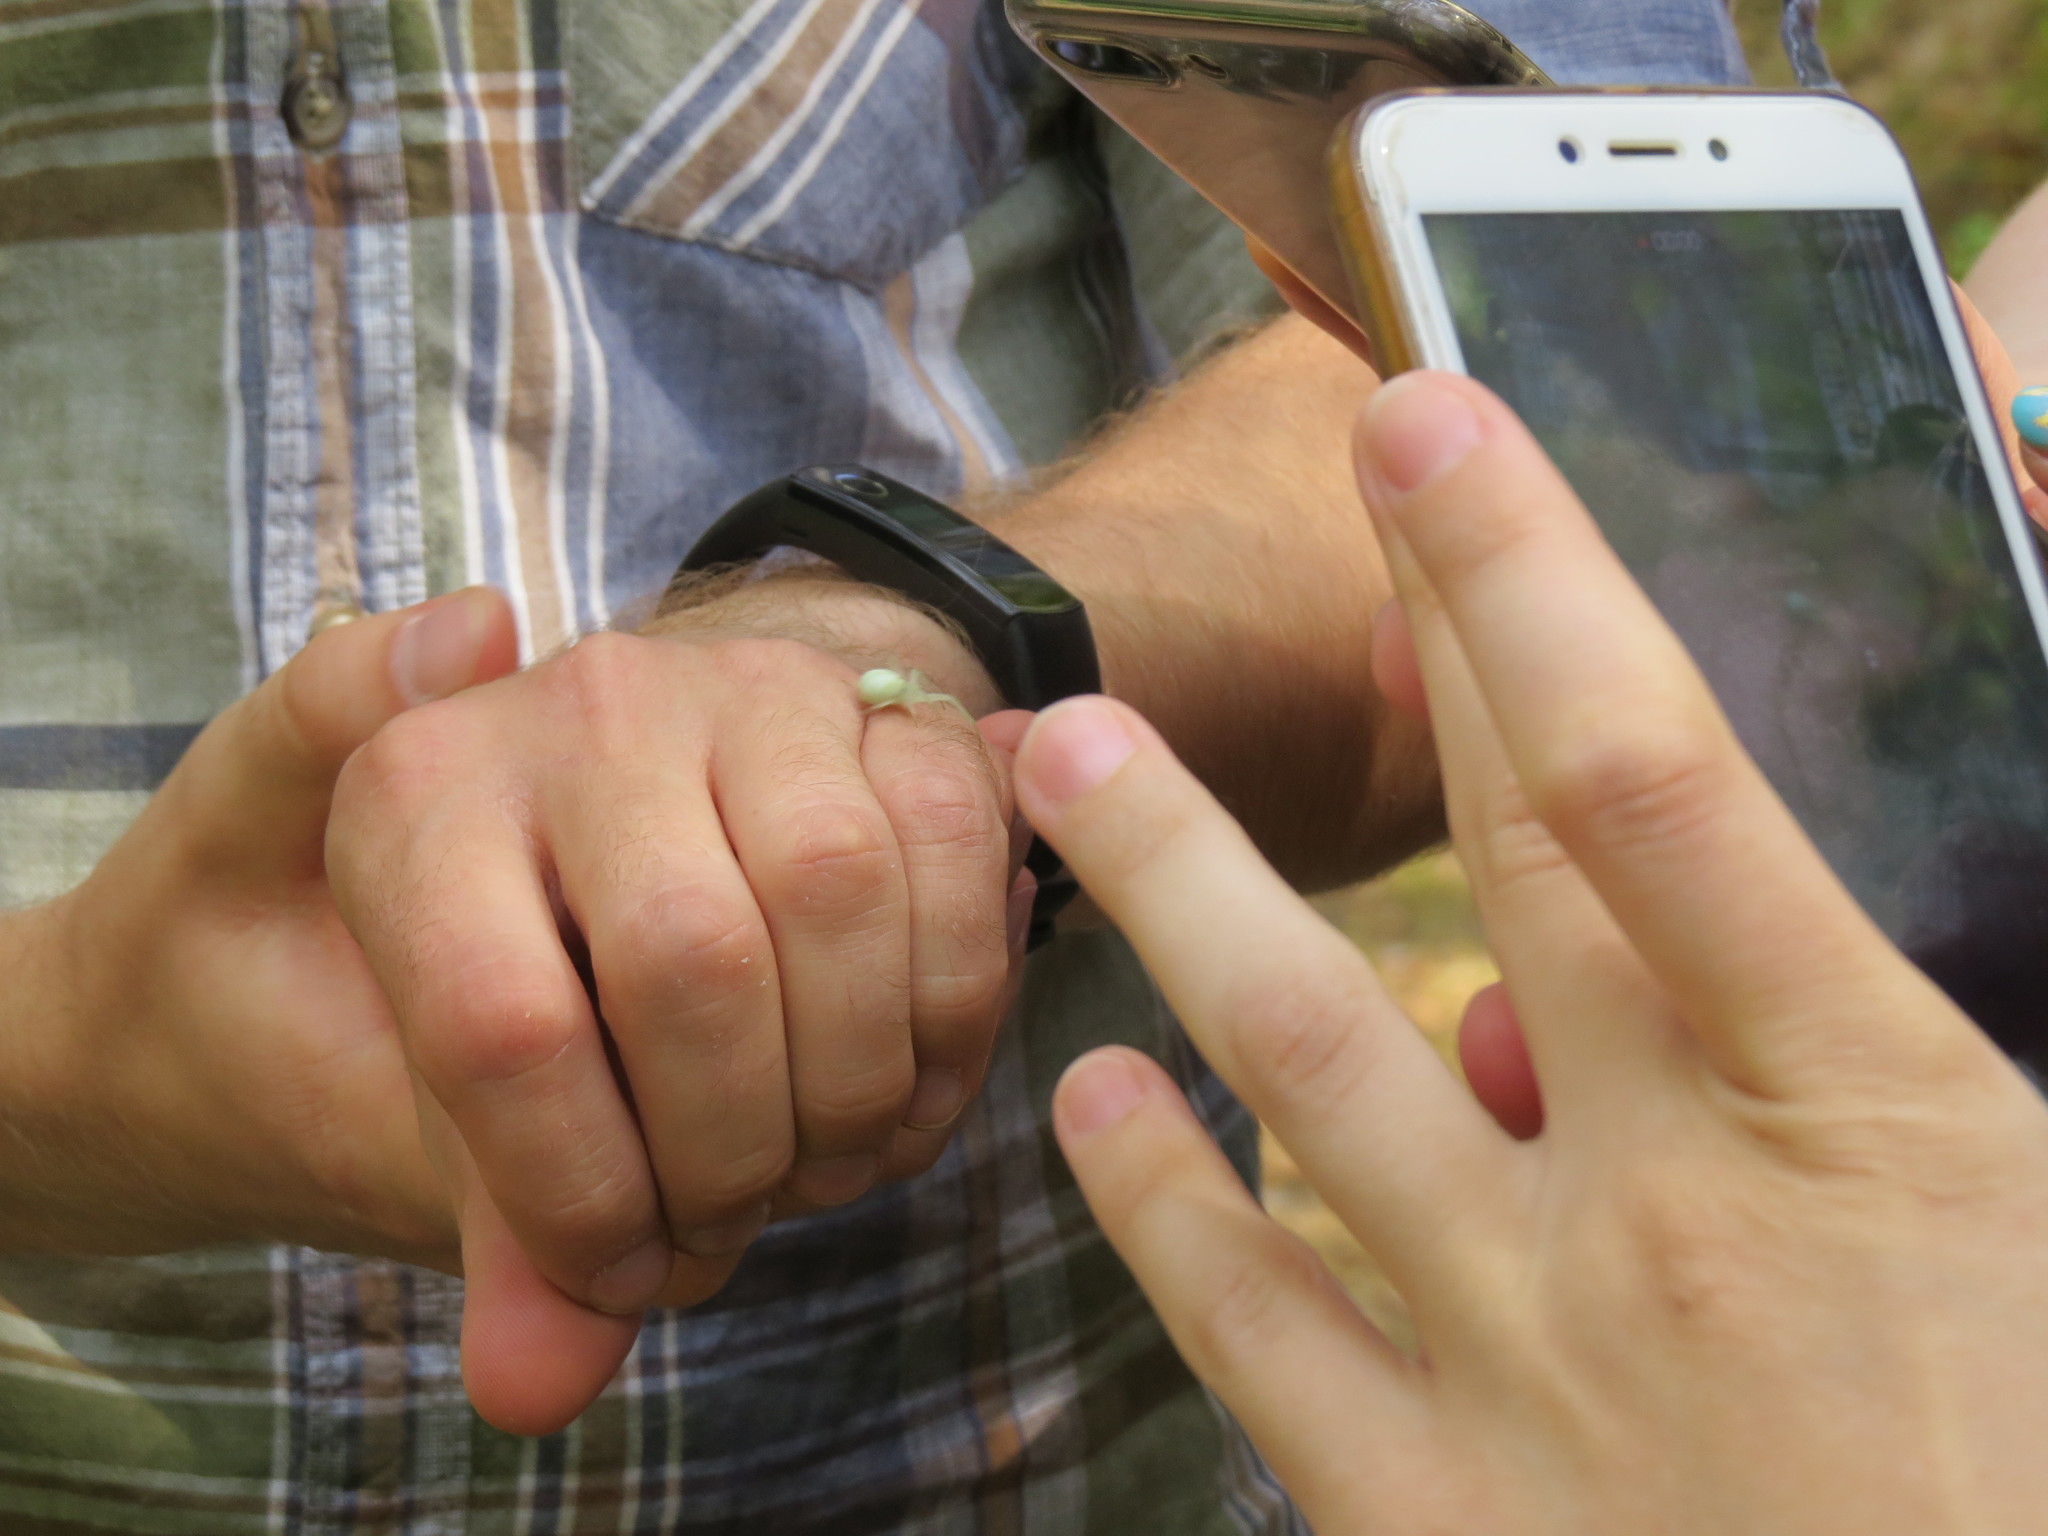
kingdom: Animalia
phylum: Arthropoda
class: Arachnida
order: Araneae
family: Thomisidae
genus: Misumena
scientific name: Misumena vatia
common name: Goldenrod crab spider
